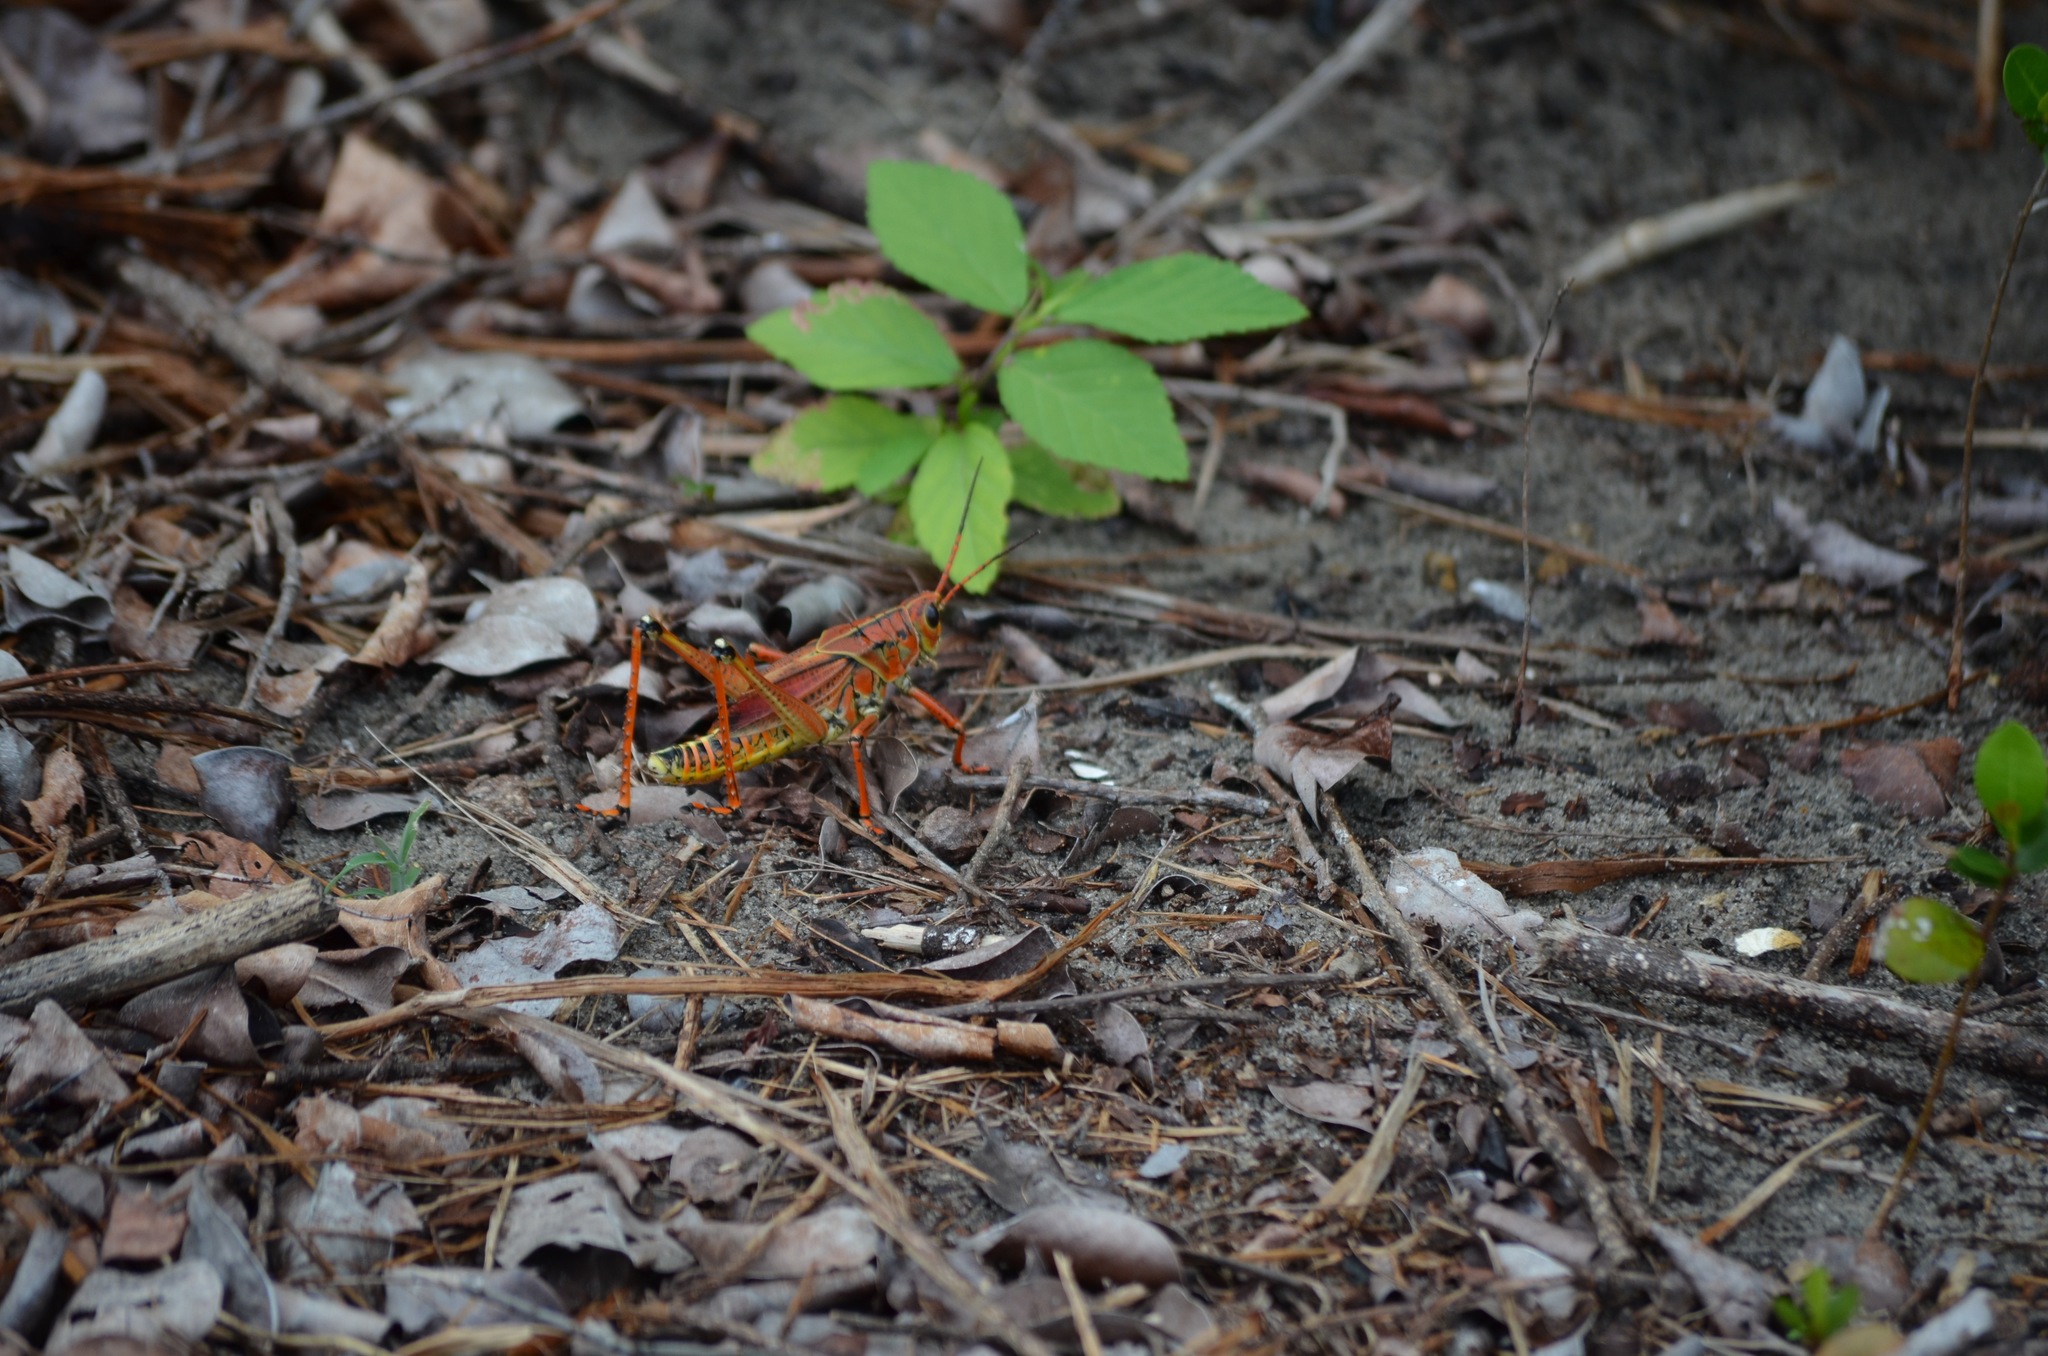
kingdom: Animalia
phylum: Arthropoda
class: Insecta
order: Orthoptera
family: Romaleidae
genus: Romalea
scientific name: Romalea microptera
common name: Eastern lubber grasshopper
